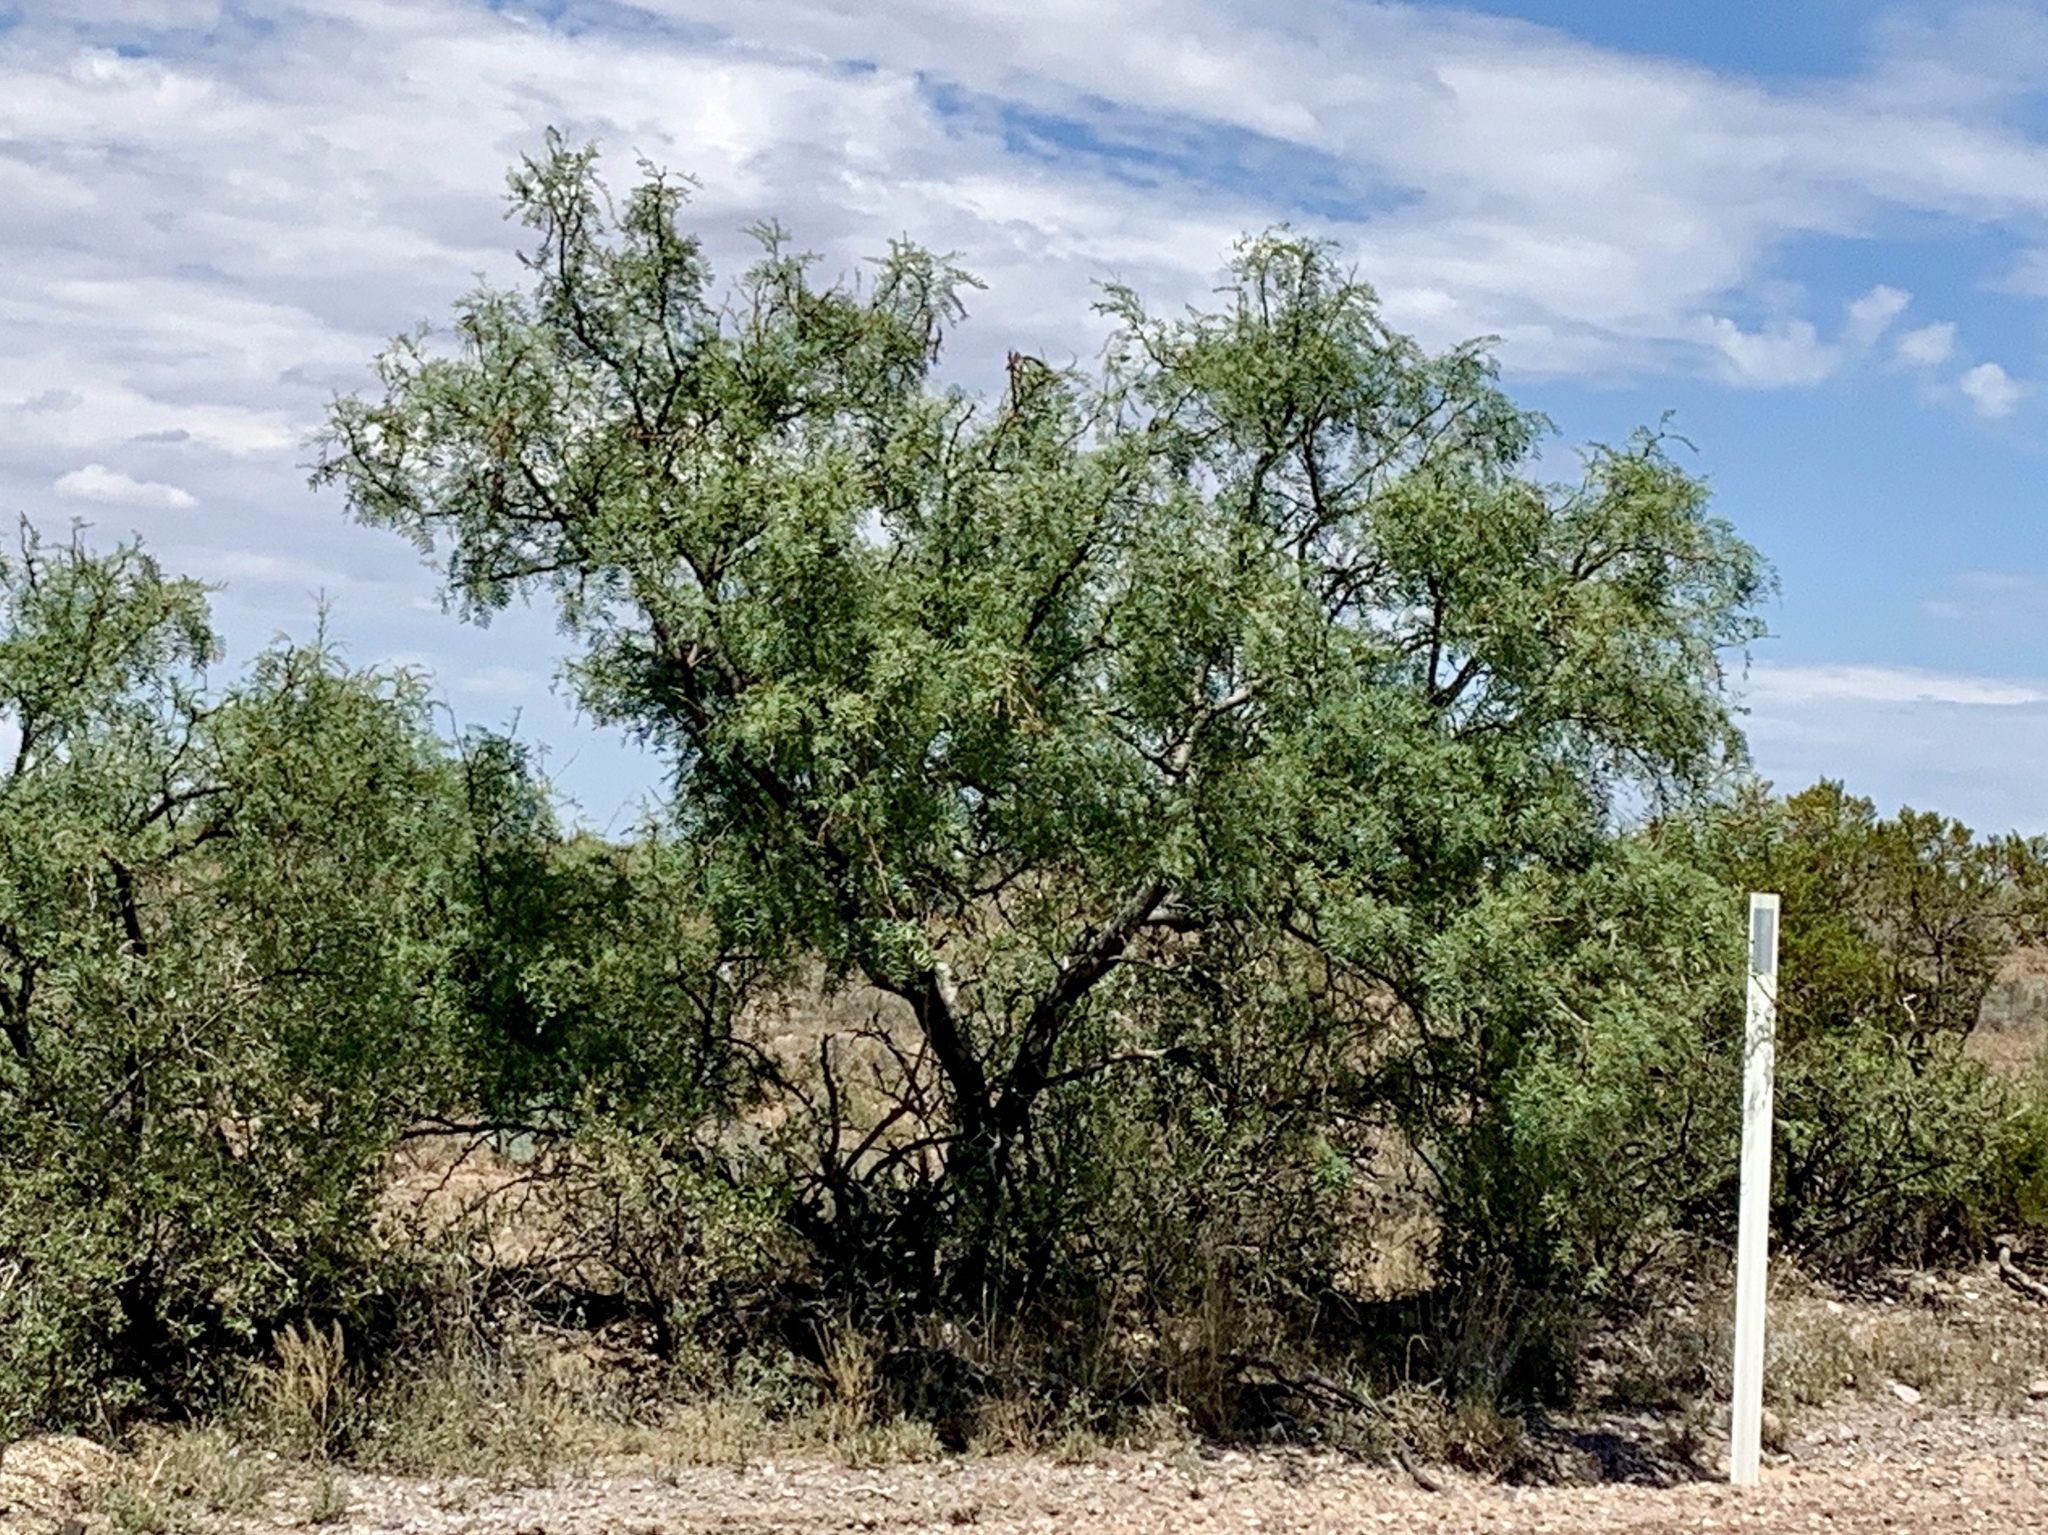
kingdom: Plantae
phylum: Tracheophyta
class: Magnoliopsida
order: Fabales
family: Fabaceae
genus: Prosopis
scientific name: Prosopis glandulosa
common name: Honey mesquite
